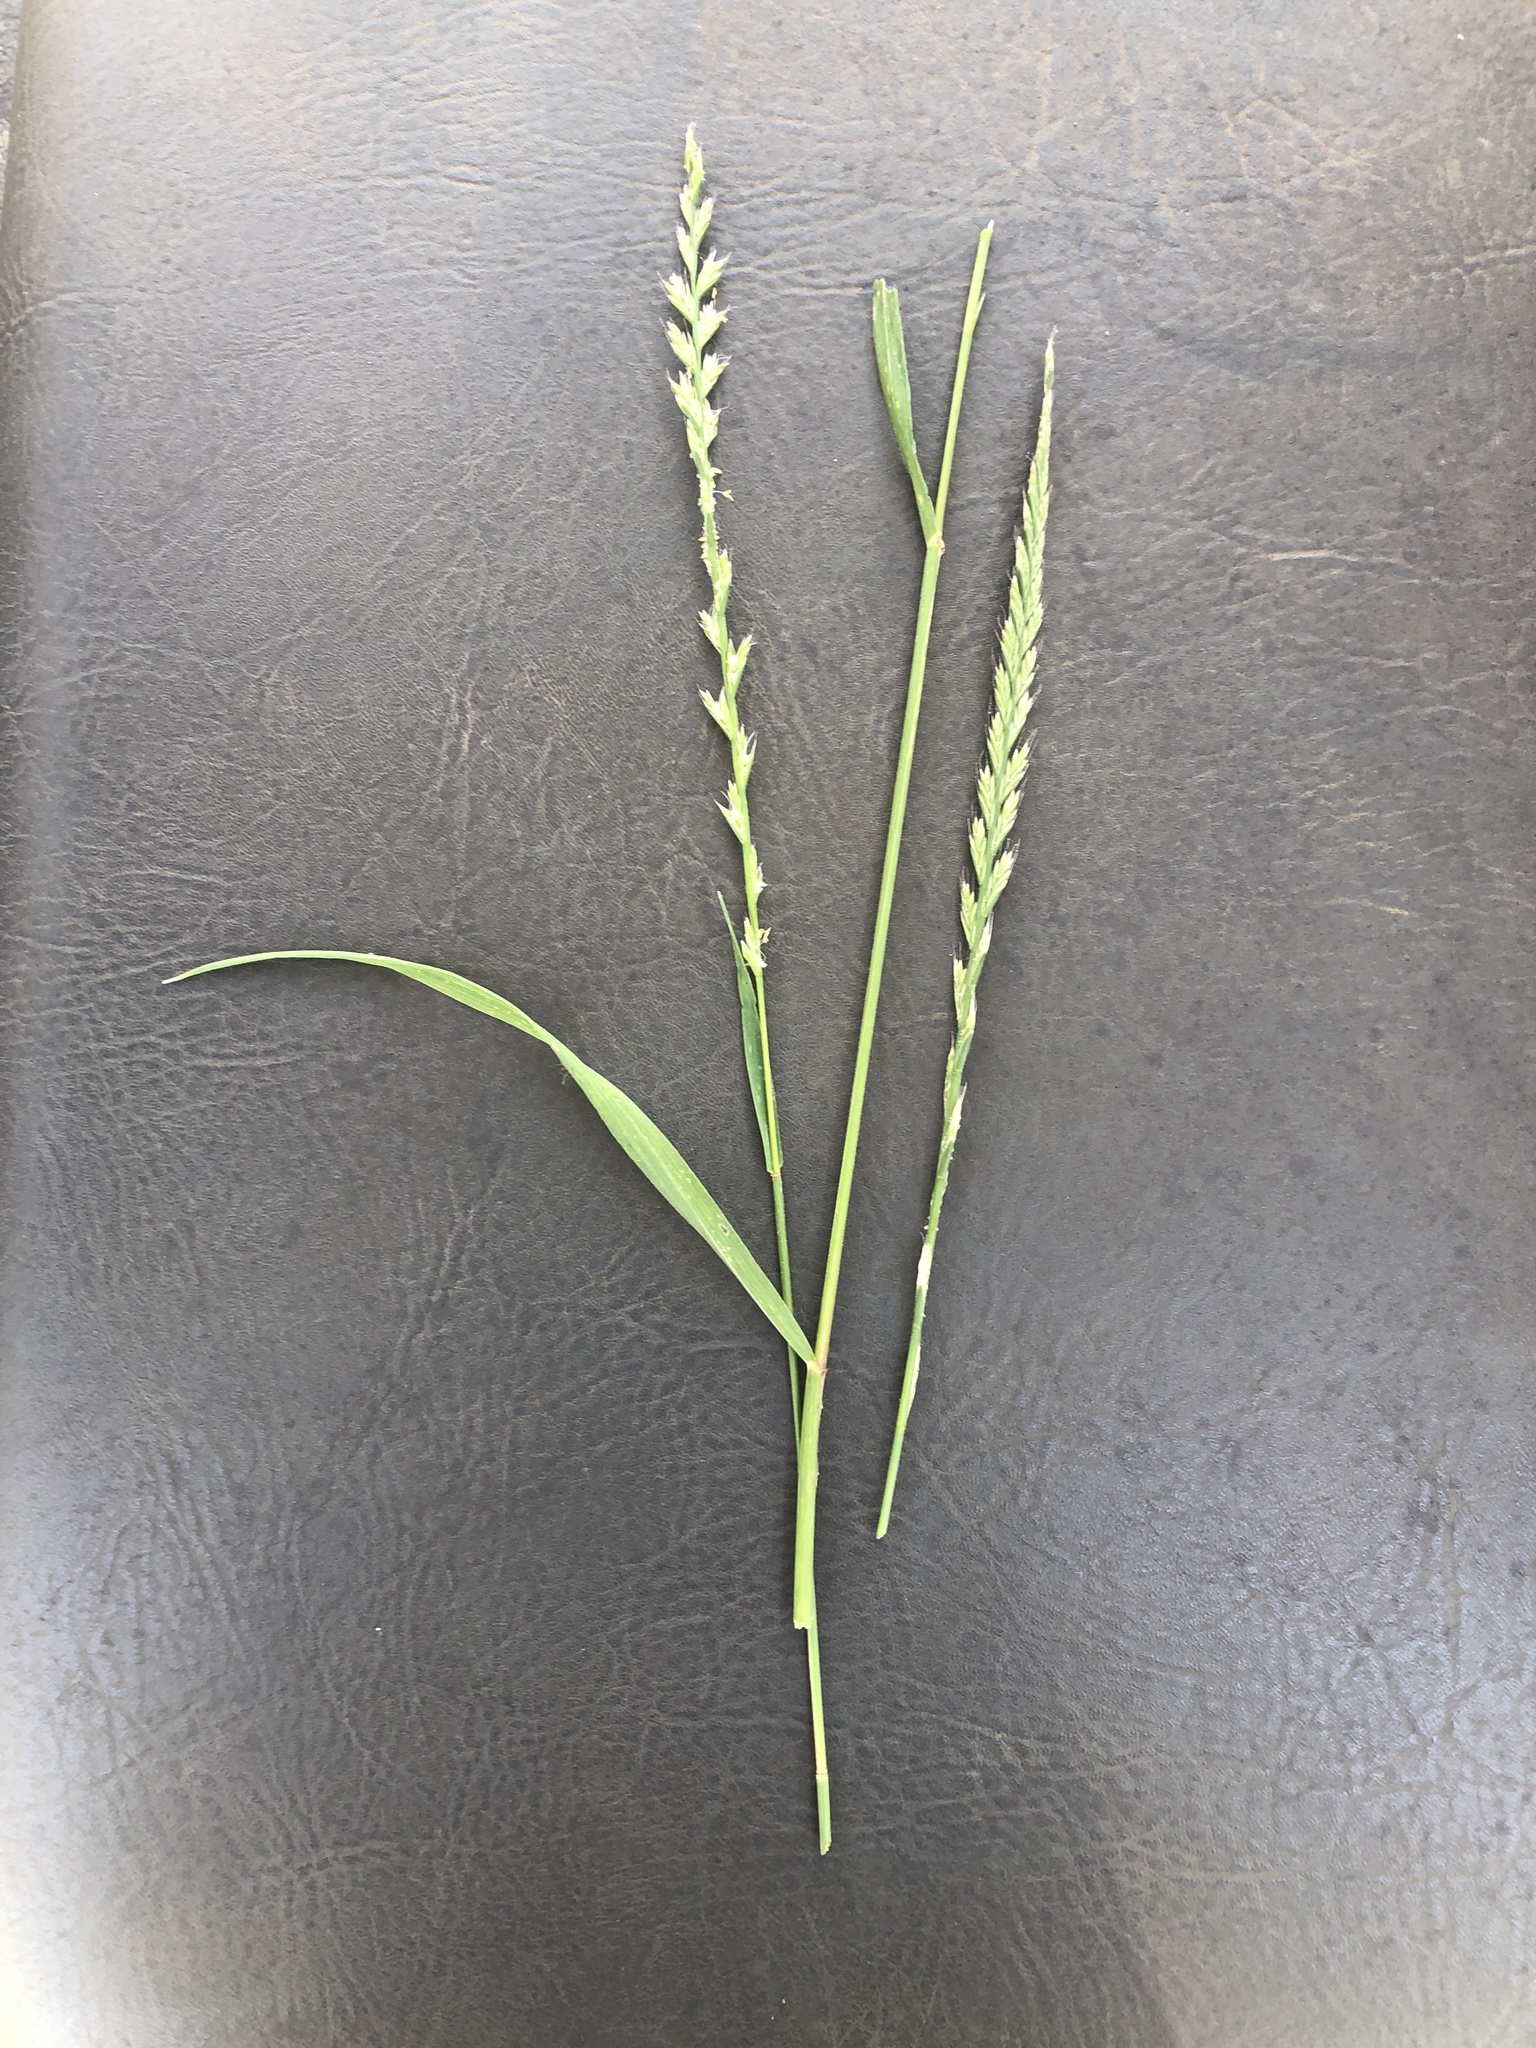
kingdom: Plantae
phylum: Tracheophyta
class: Liliopsida
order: Poales
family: Poaceae
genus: Lolium
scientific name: Lolium perenne
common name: Perennial ryegrass
